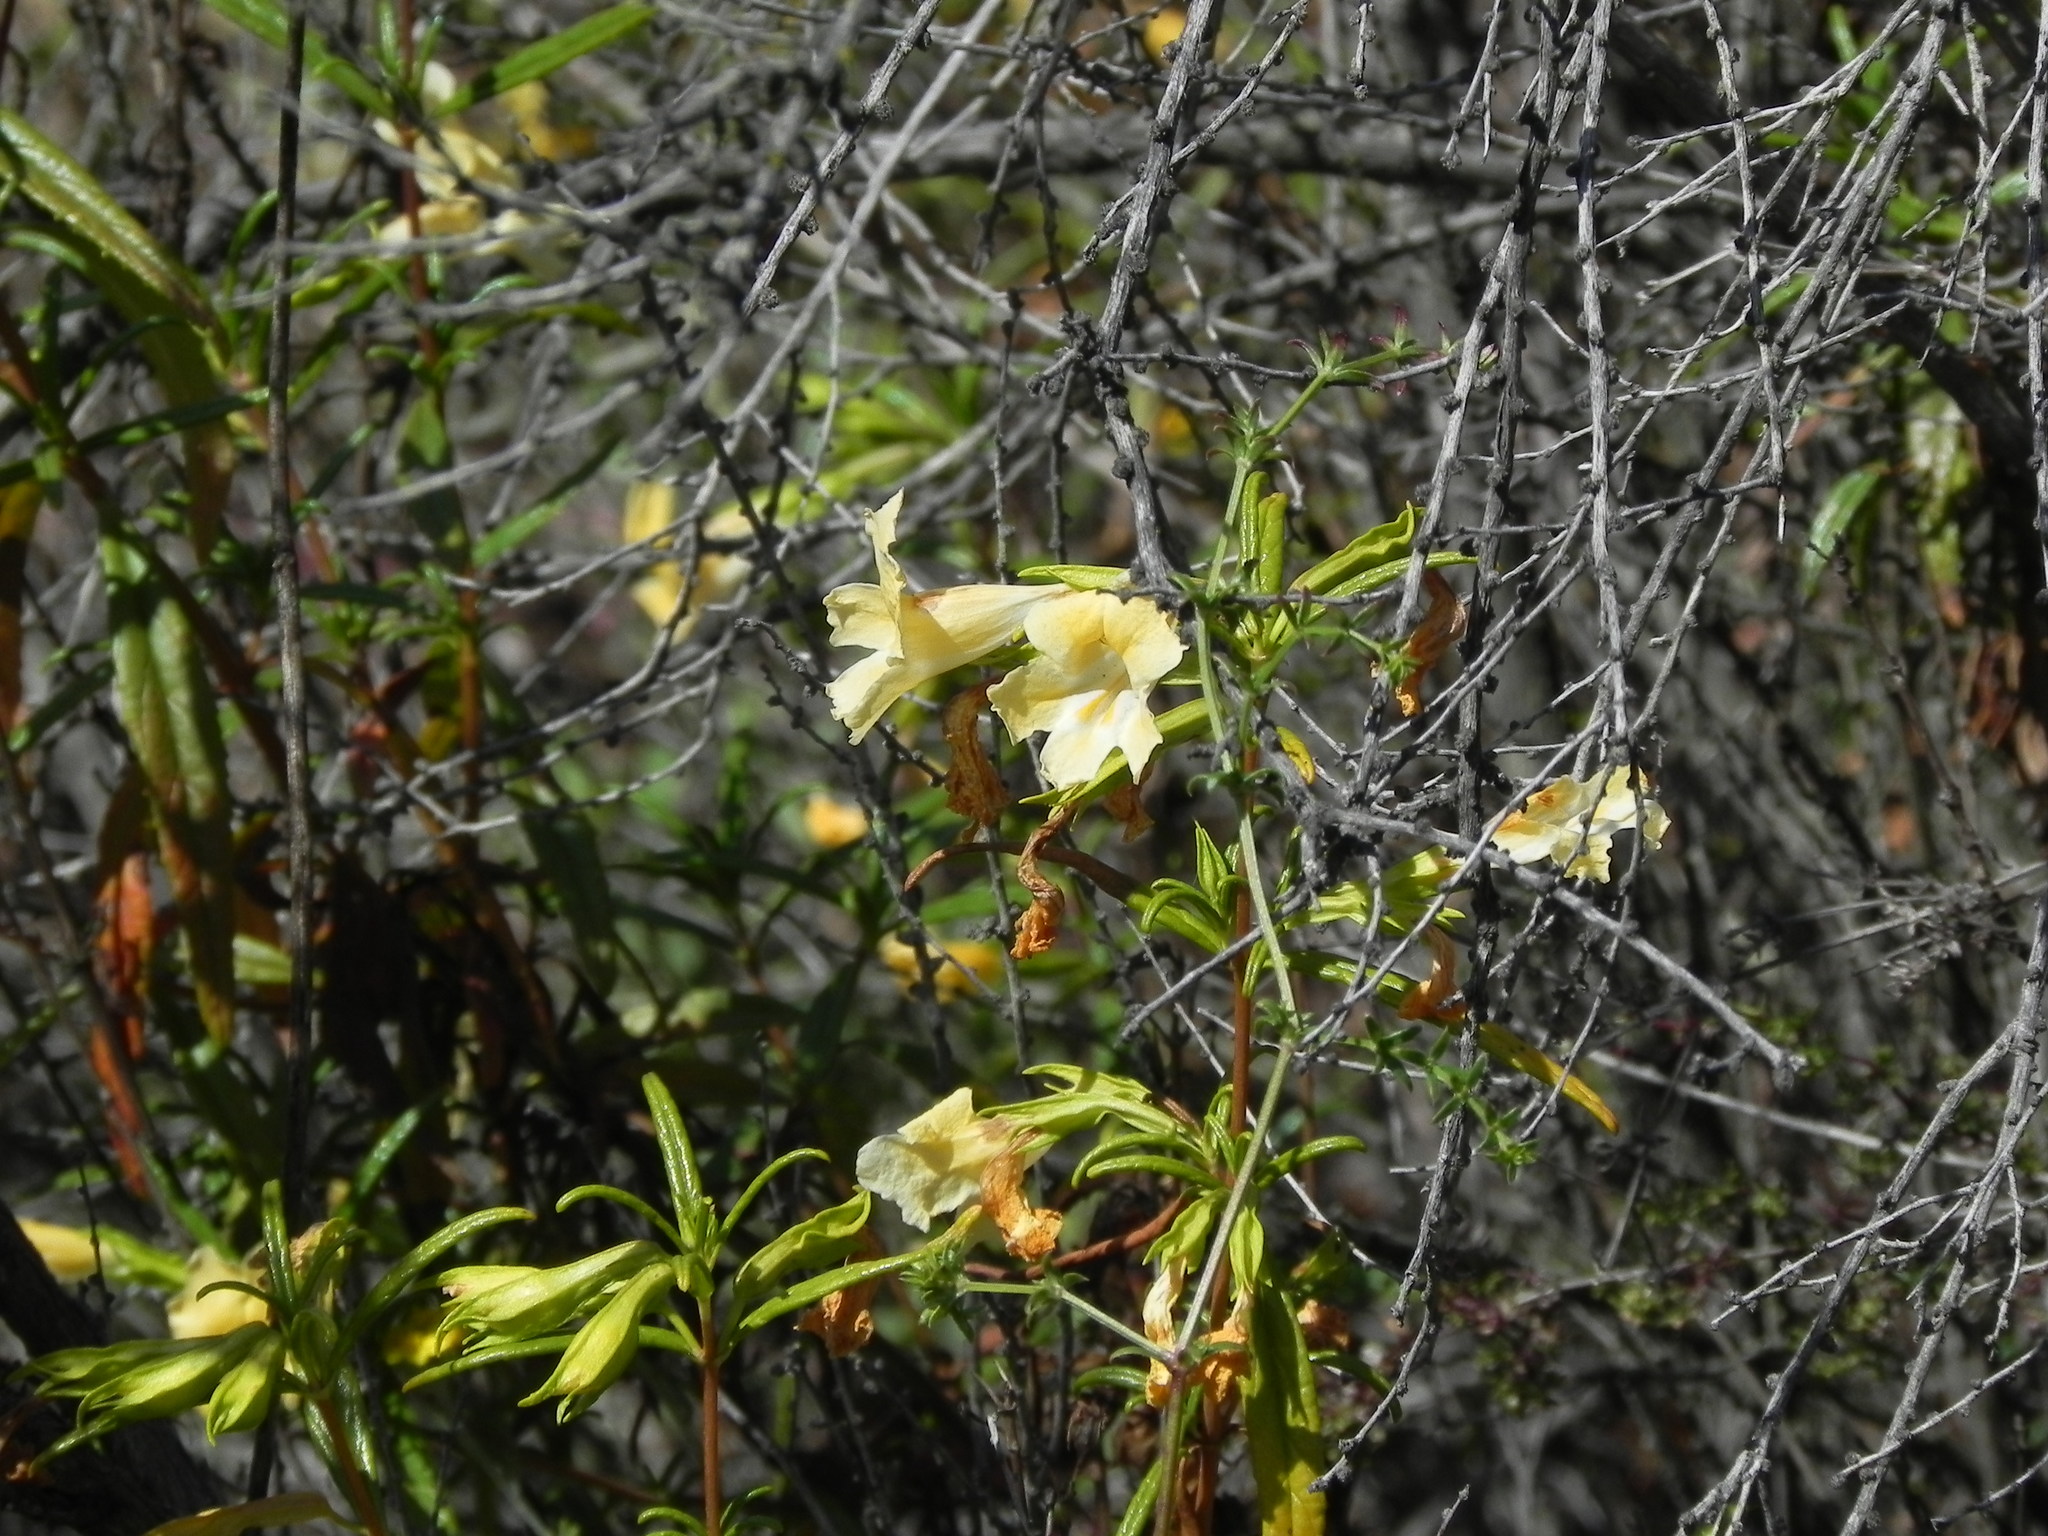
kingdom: Plantae
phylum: Tracheophyta
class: Magnoliopsida
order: Lamiales
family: Phrymaceae
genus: Diplacus
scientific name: Diplacus australis
